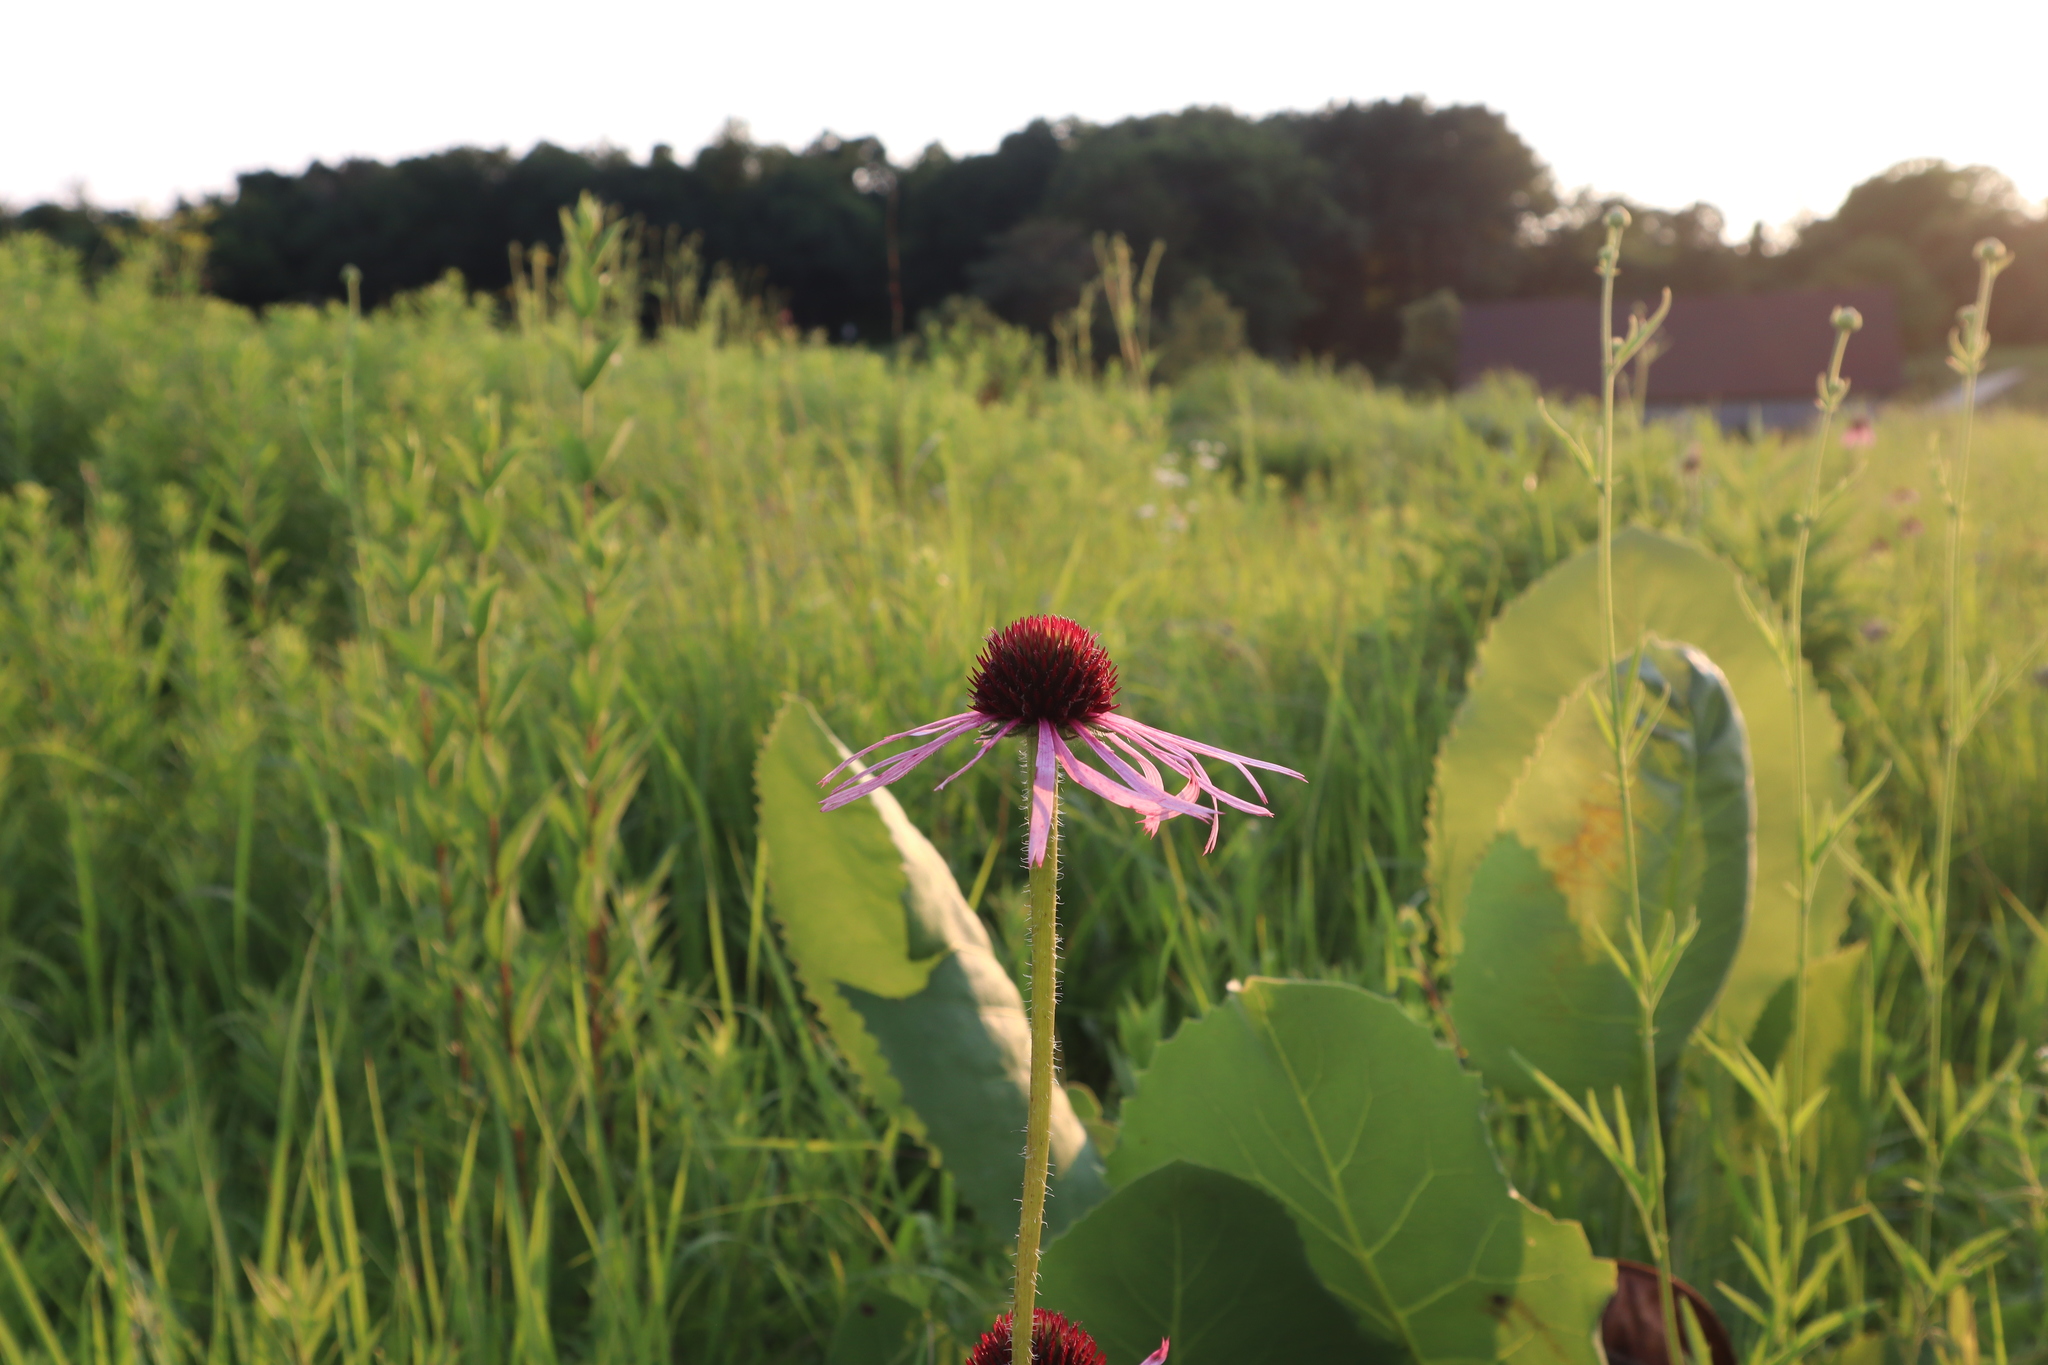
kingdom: Plantae
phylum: Tracheophyta
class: Magnoliopsida
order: Asterales
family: Asteraceae
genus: Echinacea
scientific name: Echinacea pallida
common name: Pale echinacea
